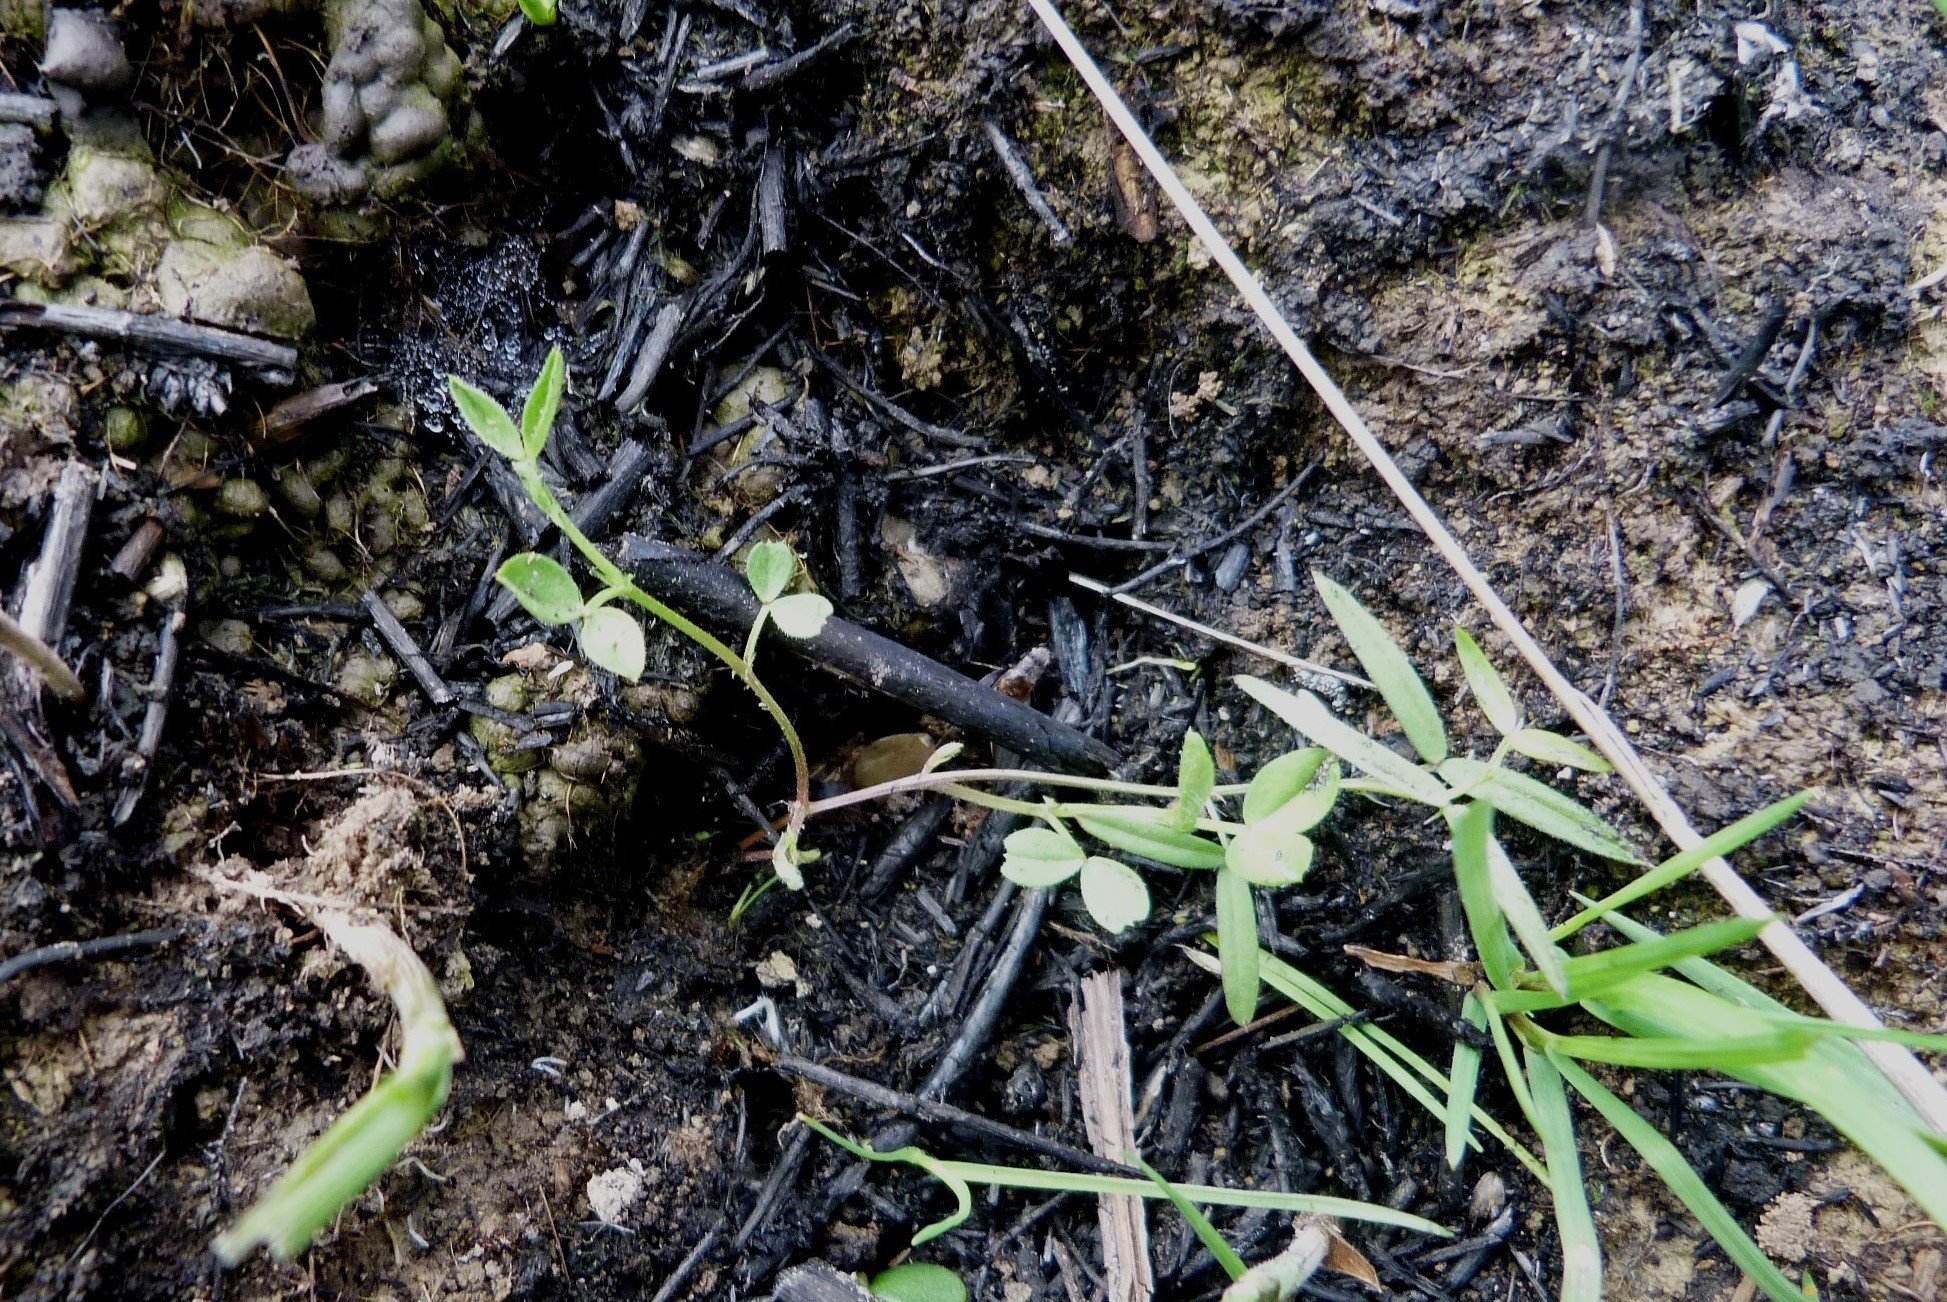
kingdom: Plantae
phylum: Tracheophyta
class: Magnoliopsida
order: Fabales
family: Fabaceae
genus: Vicia
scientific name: Vicia sativa
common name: Garden vetch
